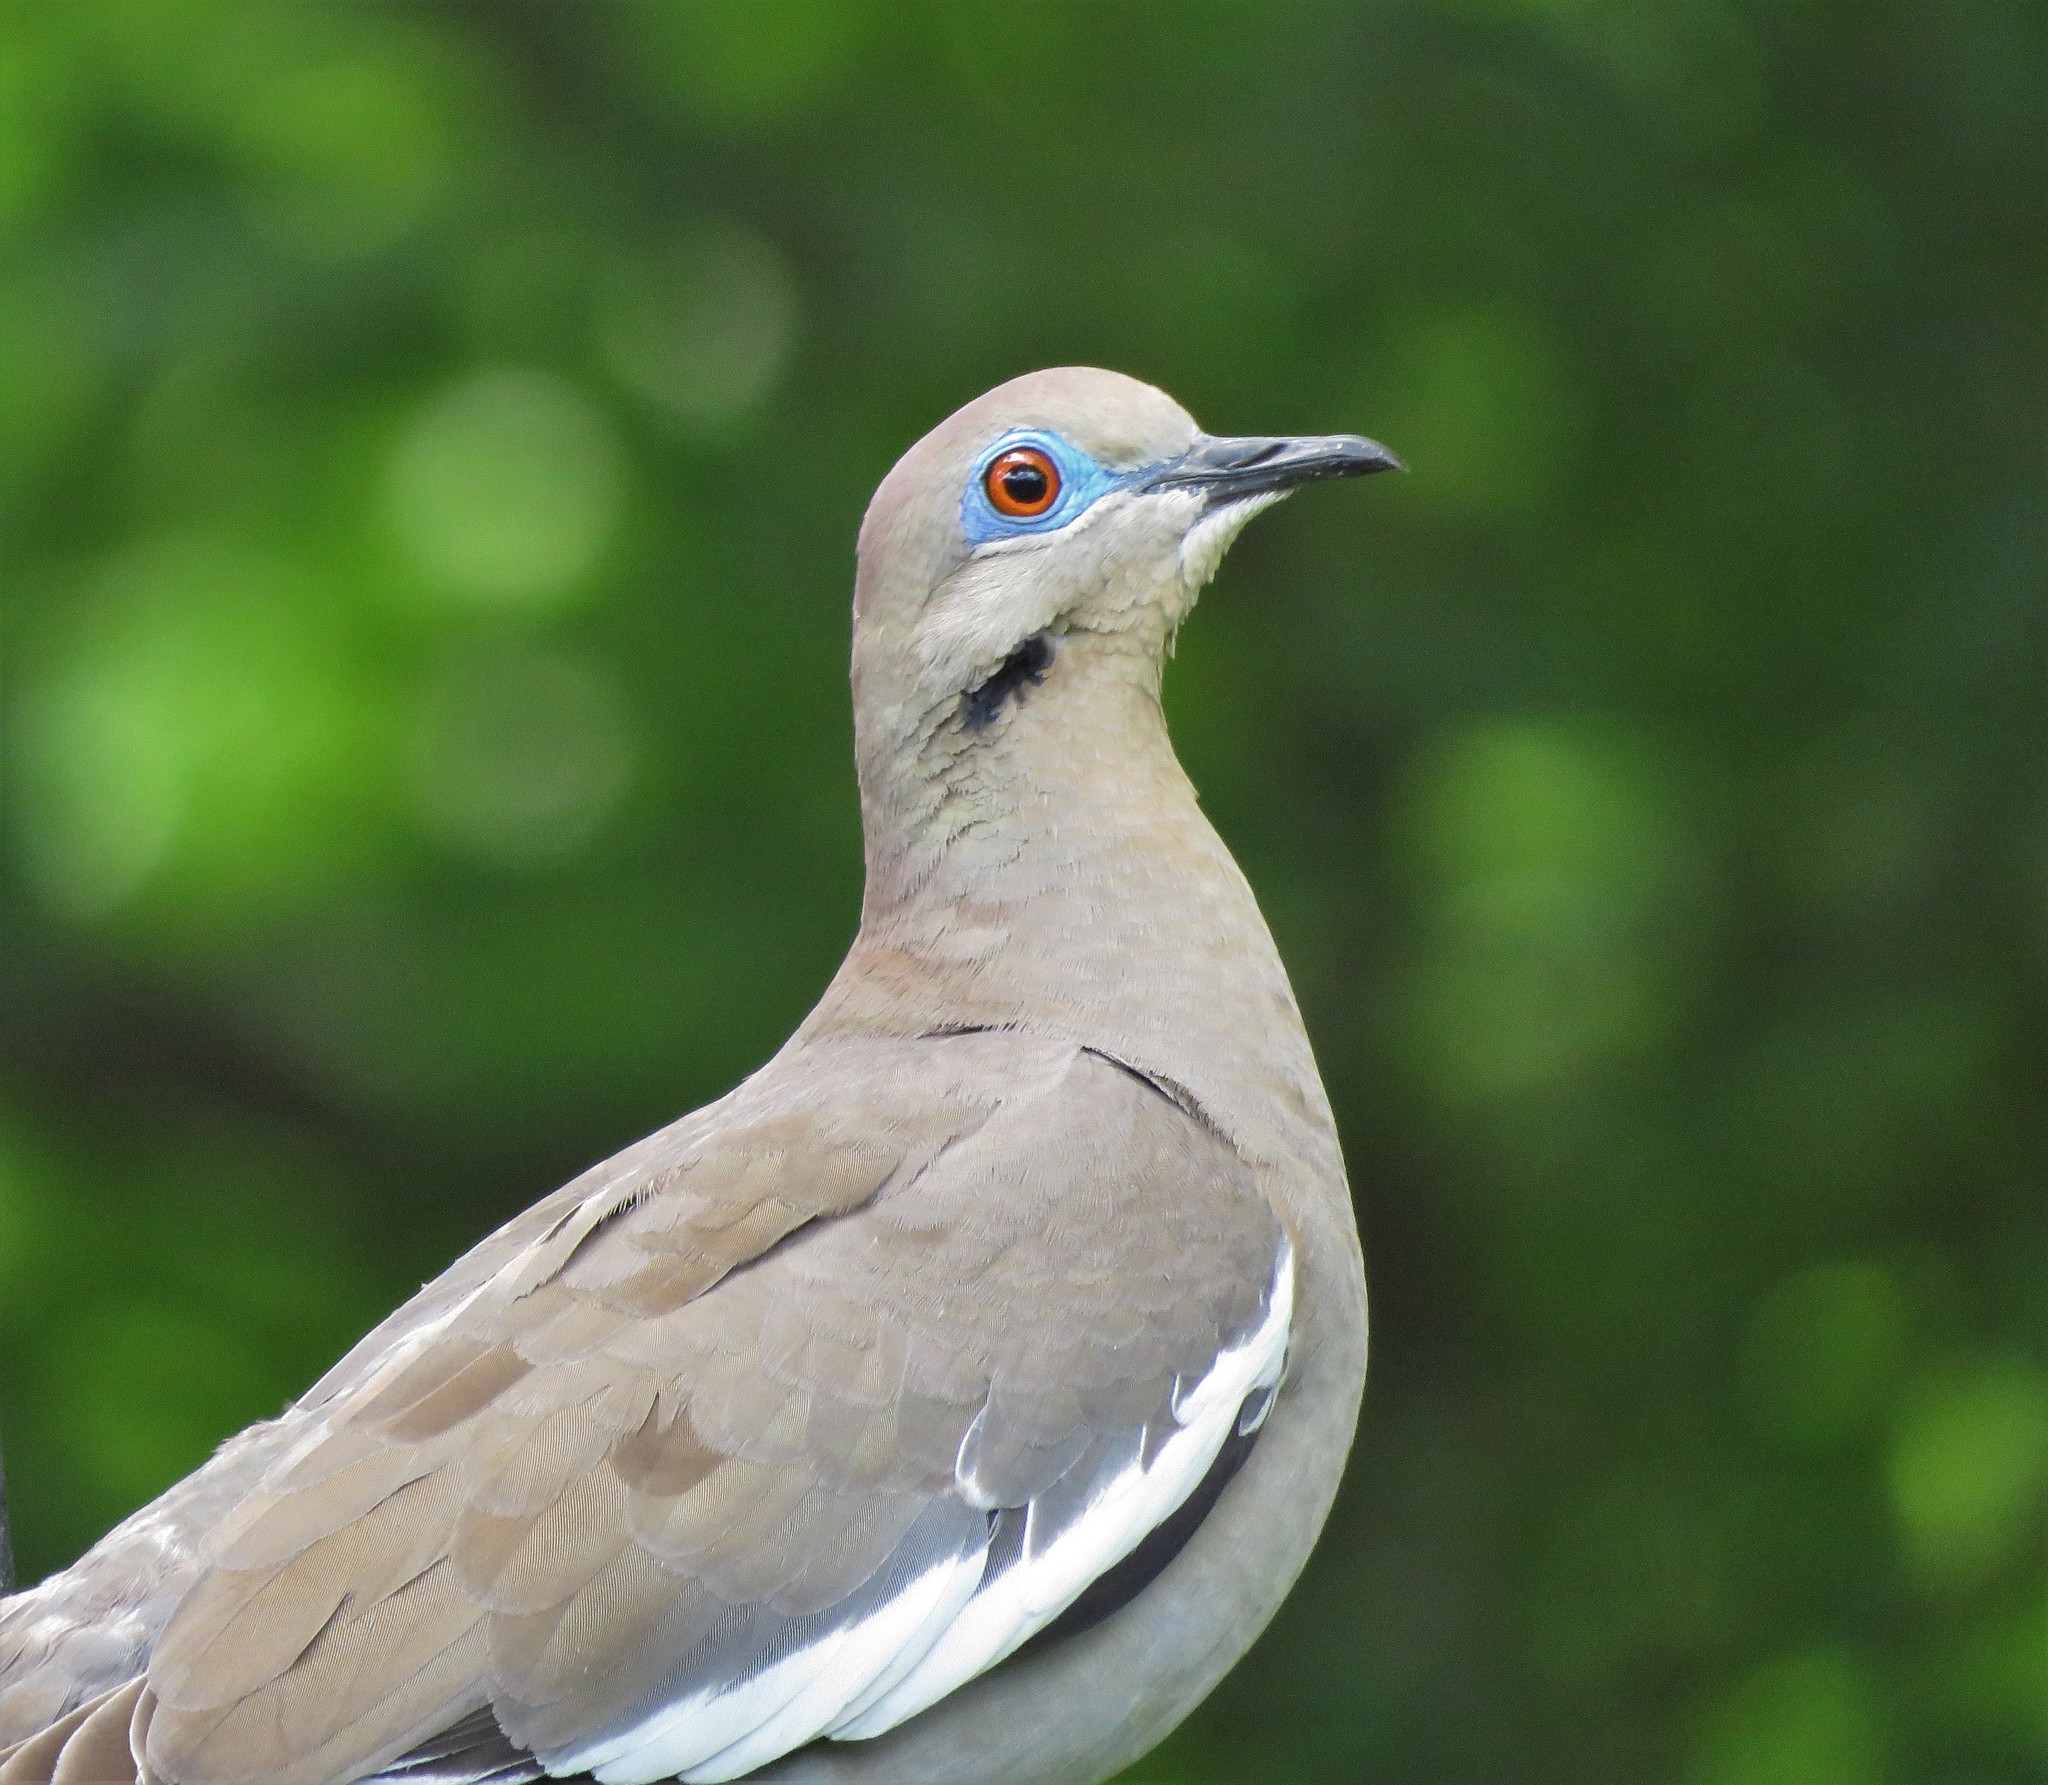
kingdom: Animalia
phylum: Chordata
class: Aves
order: Columbiformes
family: Columbidae
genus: Zenaida
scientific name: Zenaida asiatica
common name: White-winged dove
